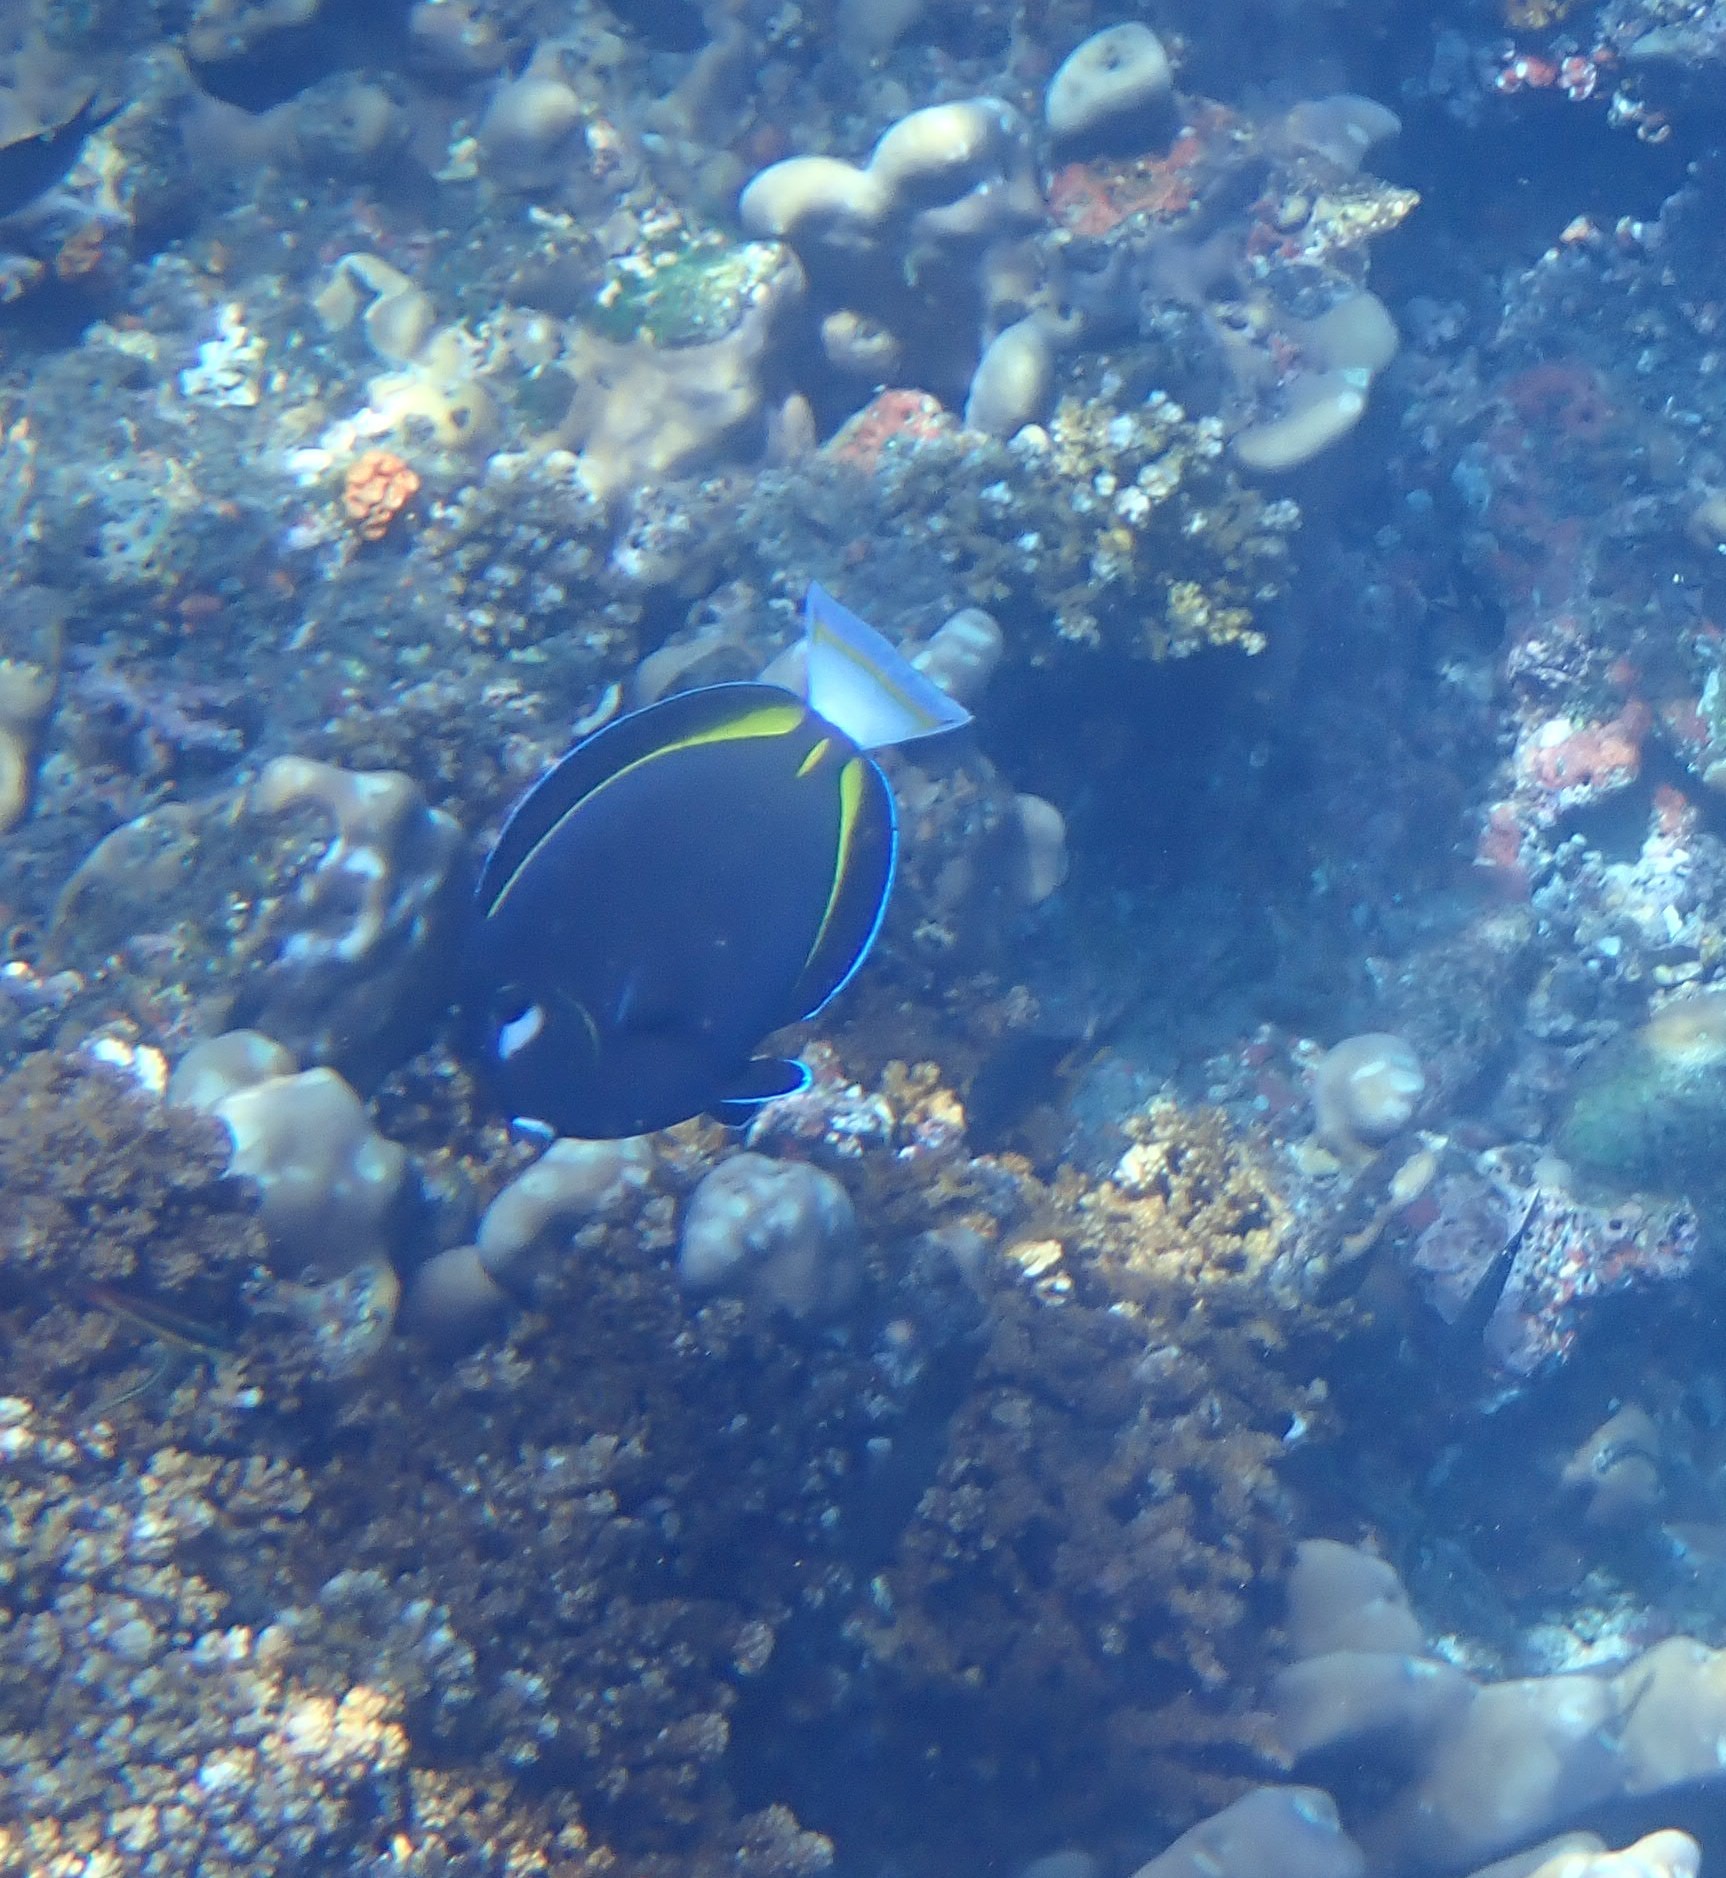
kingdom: Animalia
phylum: Chordata
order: Perciformes
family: Acanthuridae
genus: Acanthurus
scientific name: Acanthurus nigricans
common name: Whitecheek surgeonfish
